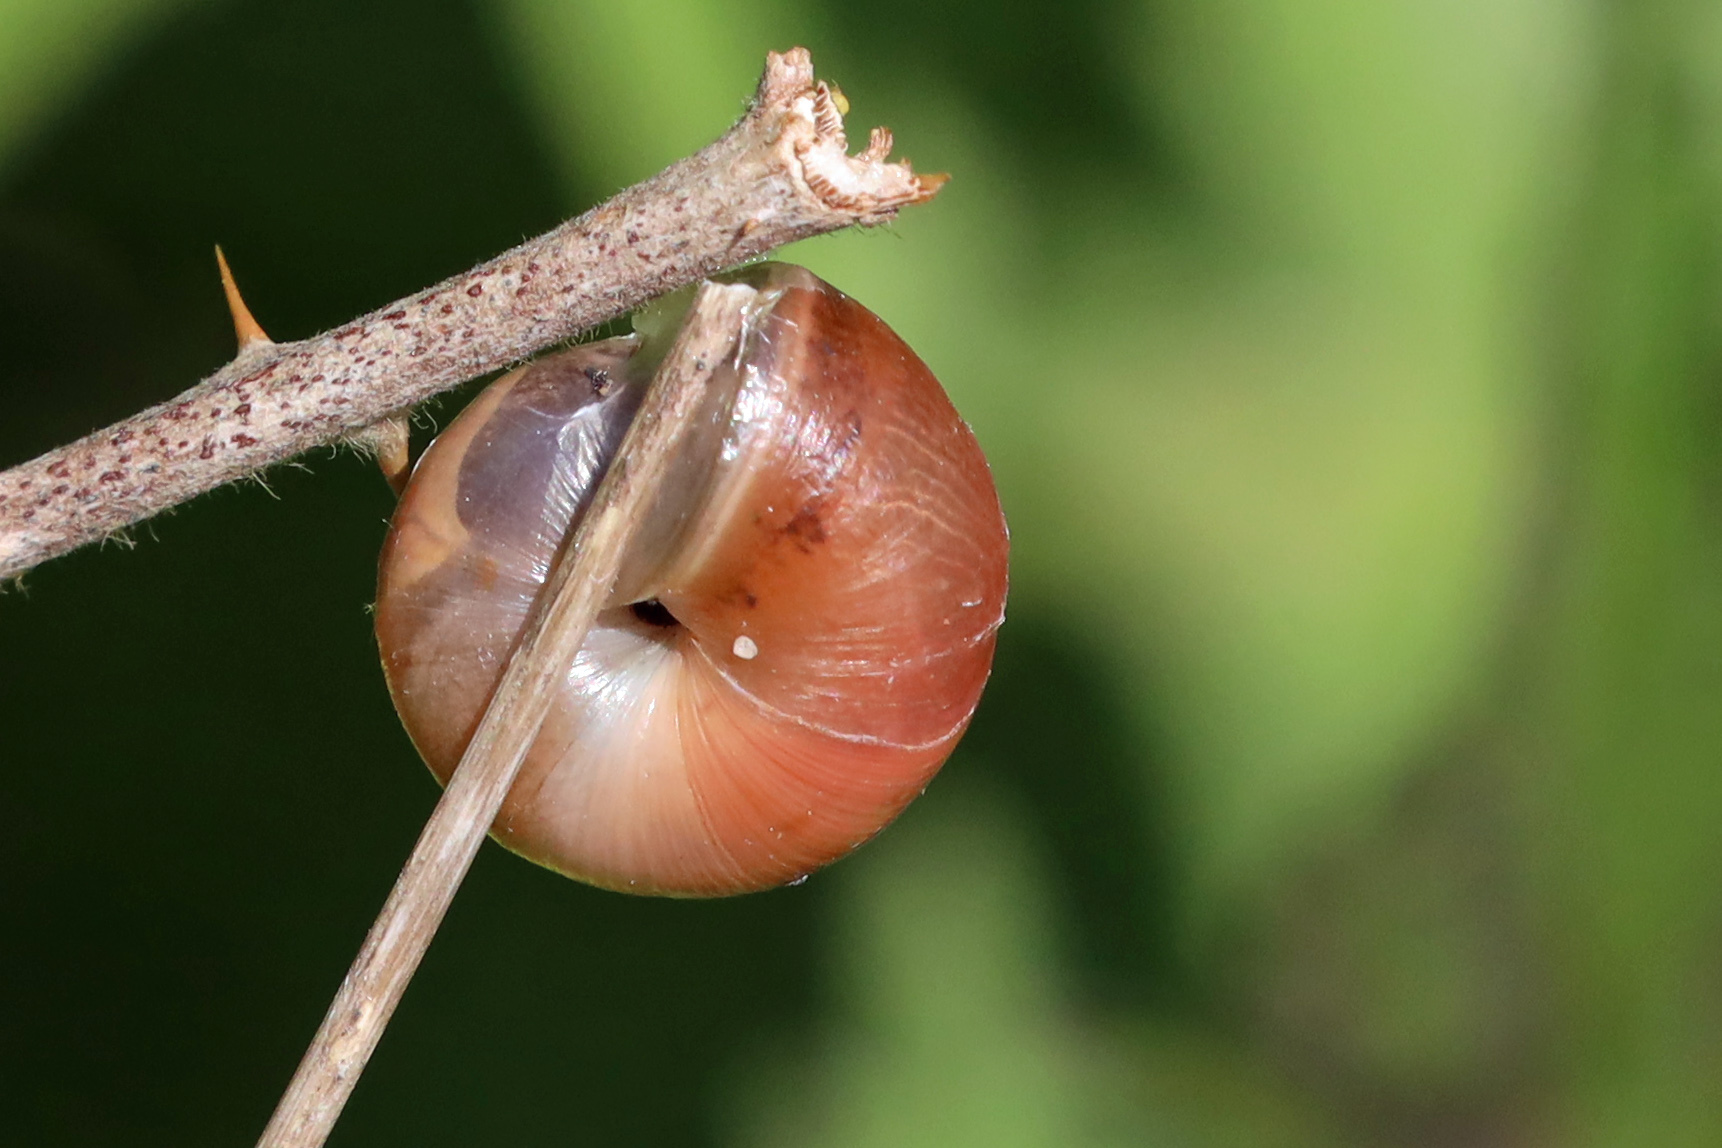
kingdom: Animalia
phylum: Mollusca
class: Gastropoda
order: Stylommatophora
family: Hygromiidae
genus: Monacha
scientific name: Monacha cantiana
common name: Kentish snail
